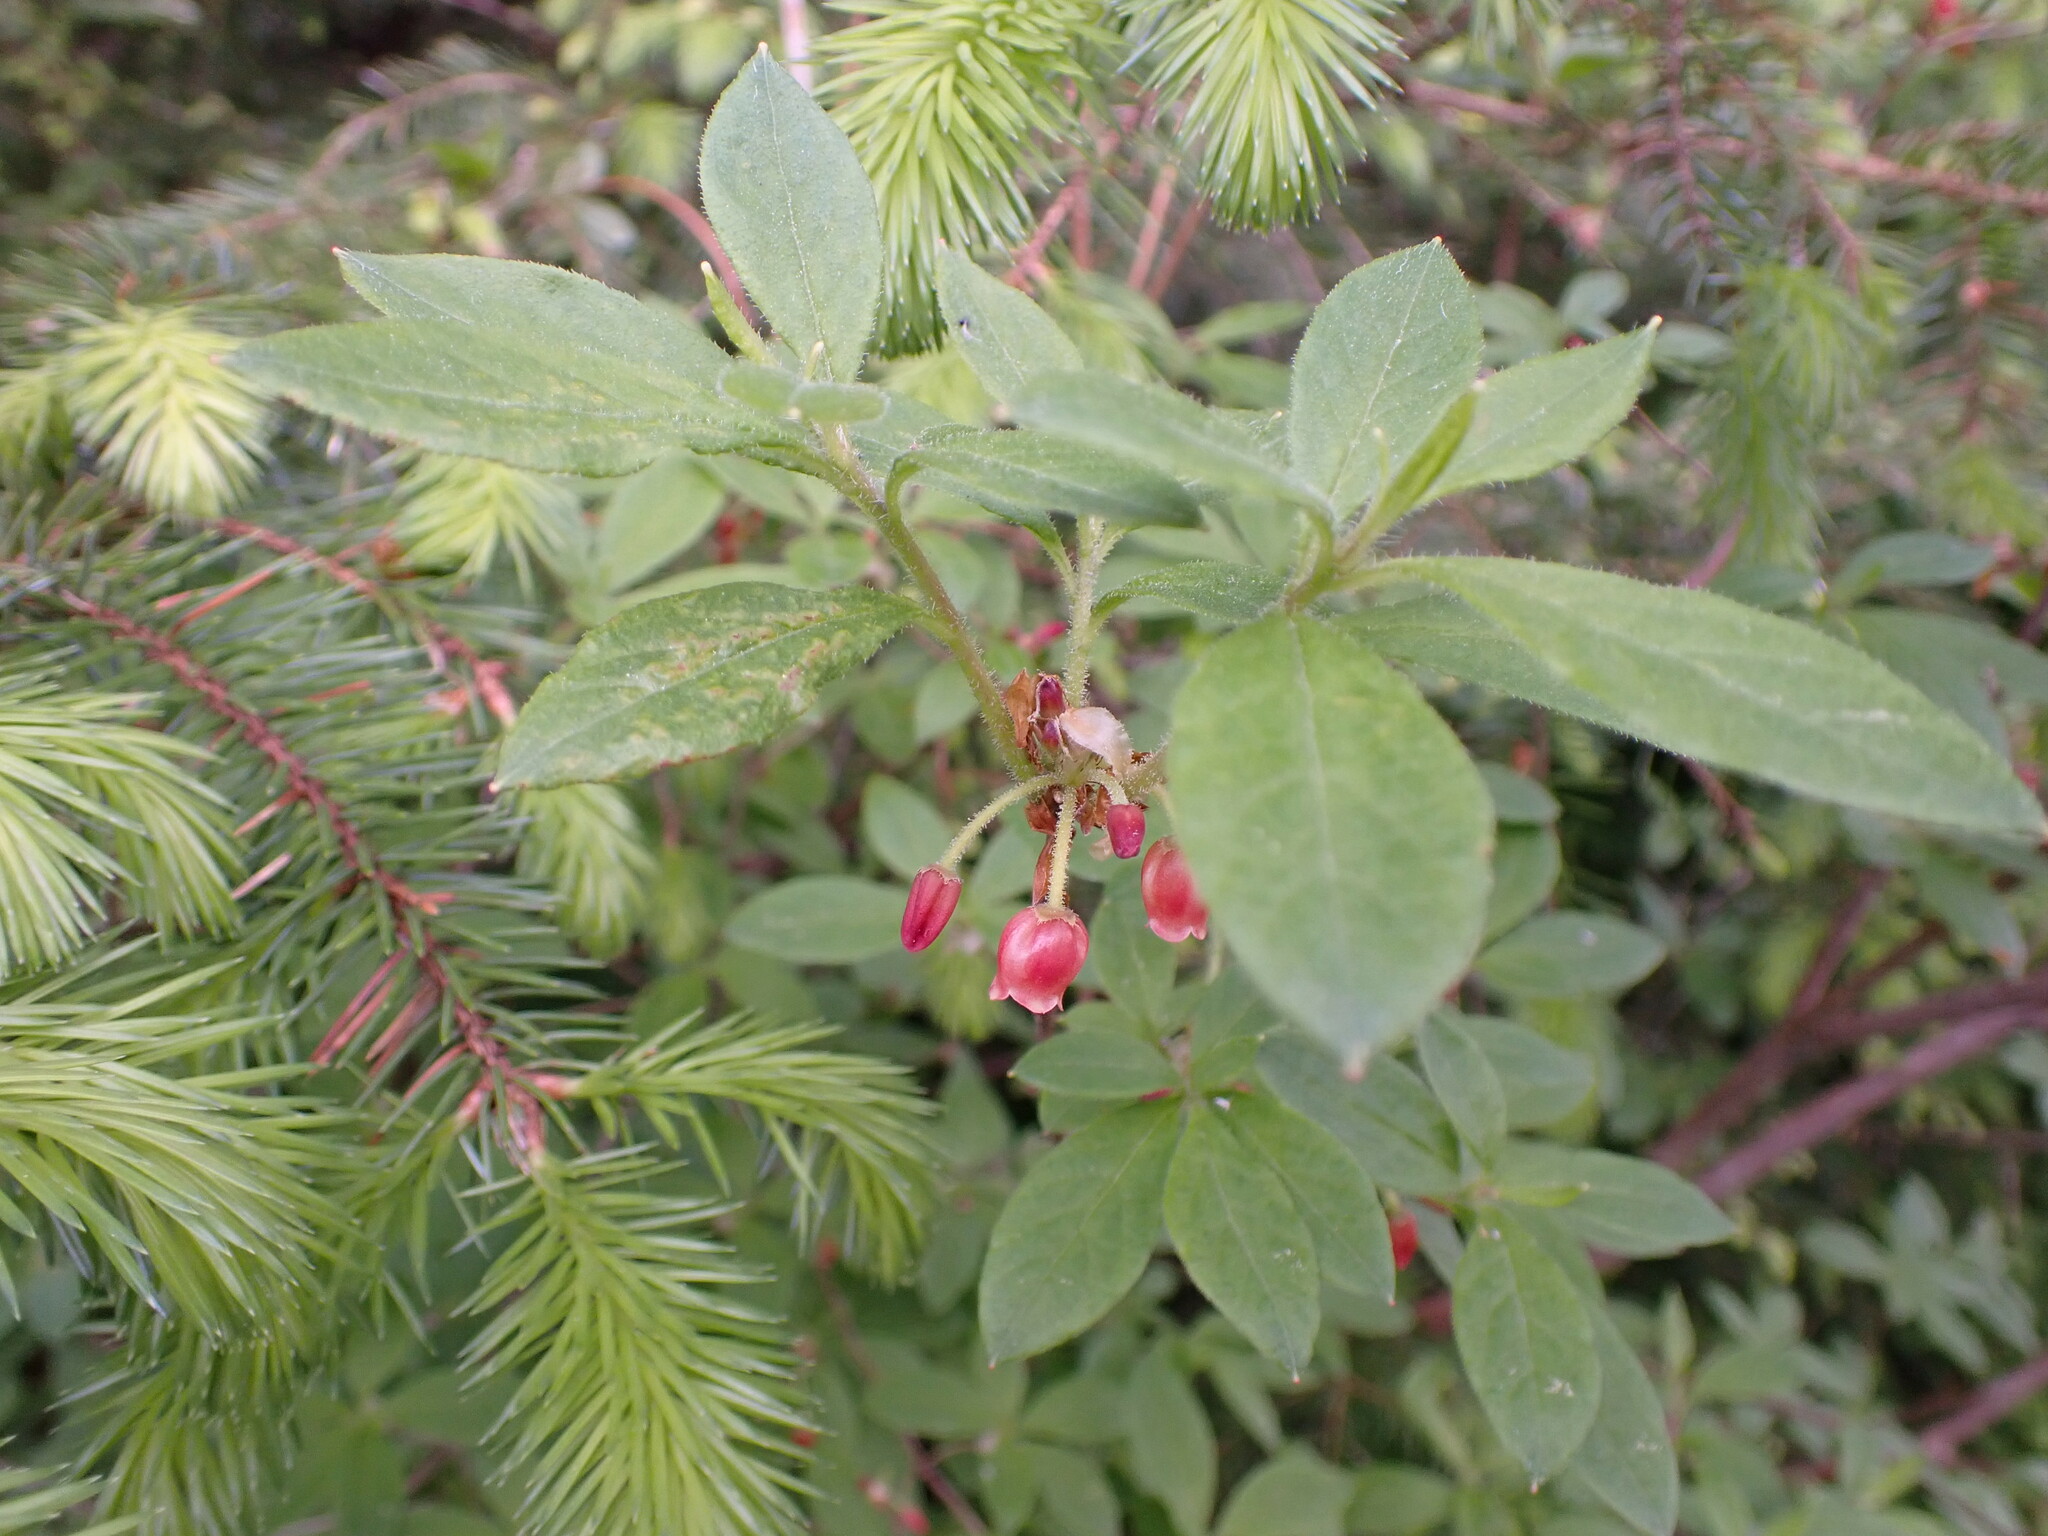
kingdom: Plantae
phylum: Tracheophyta
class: Magnoliopsida
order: Ericales
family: Ericaceae
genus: Rhododendron
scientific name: Rhododendron menziesii
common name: Pacific menziesia
